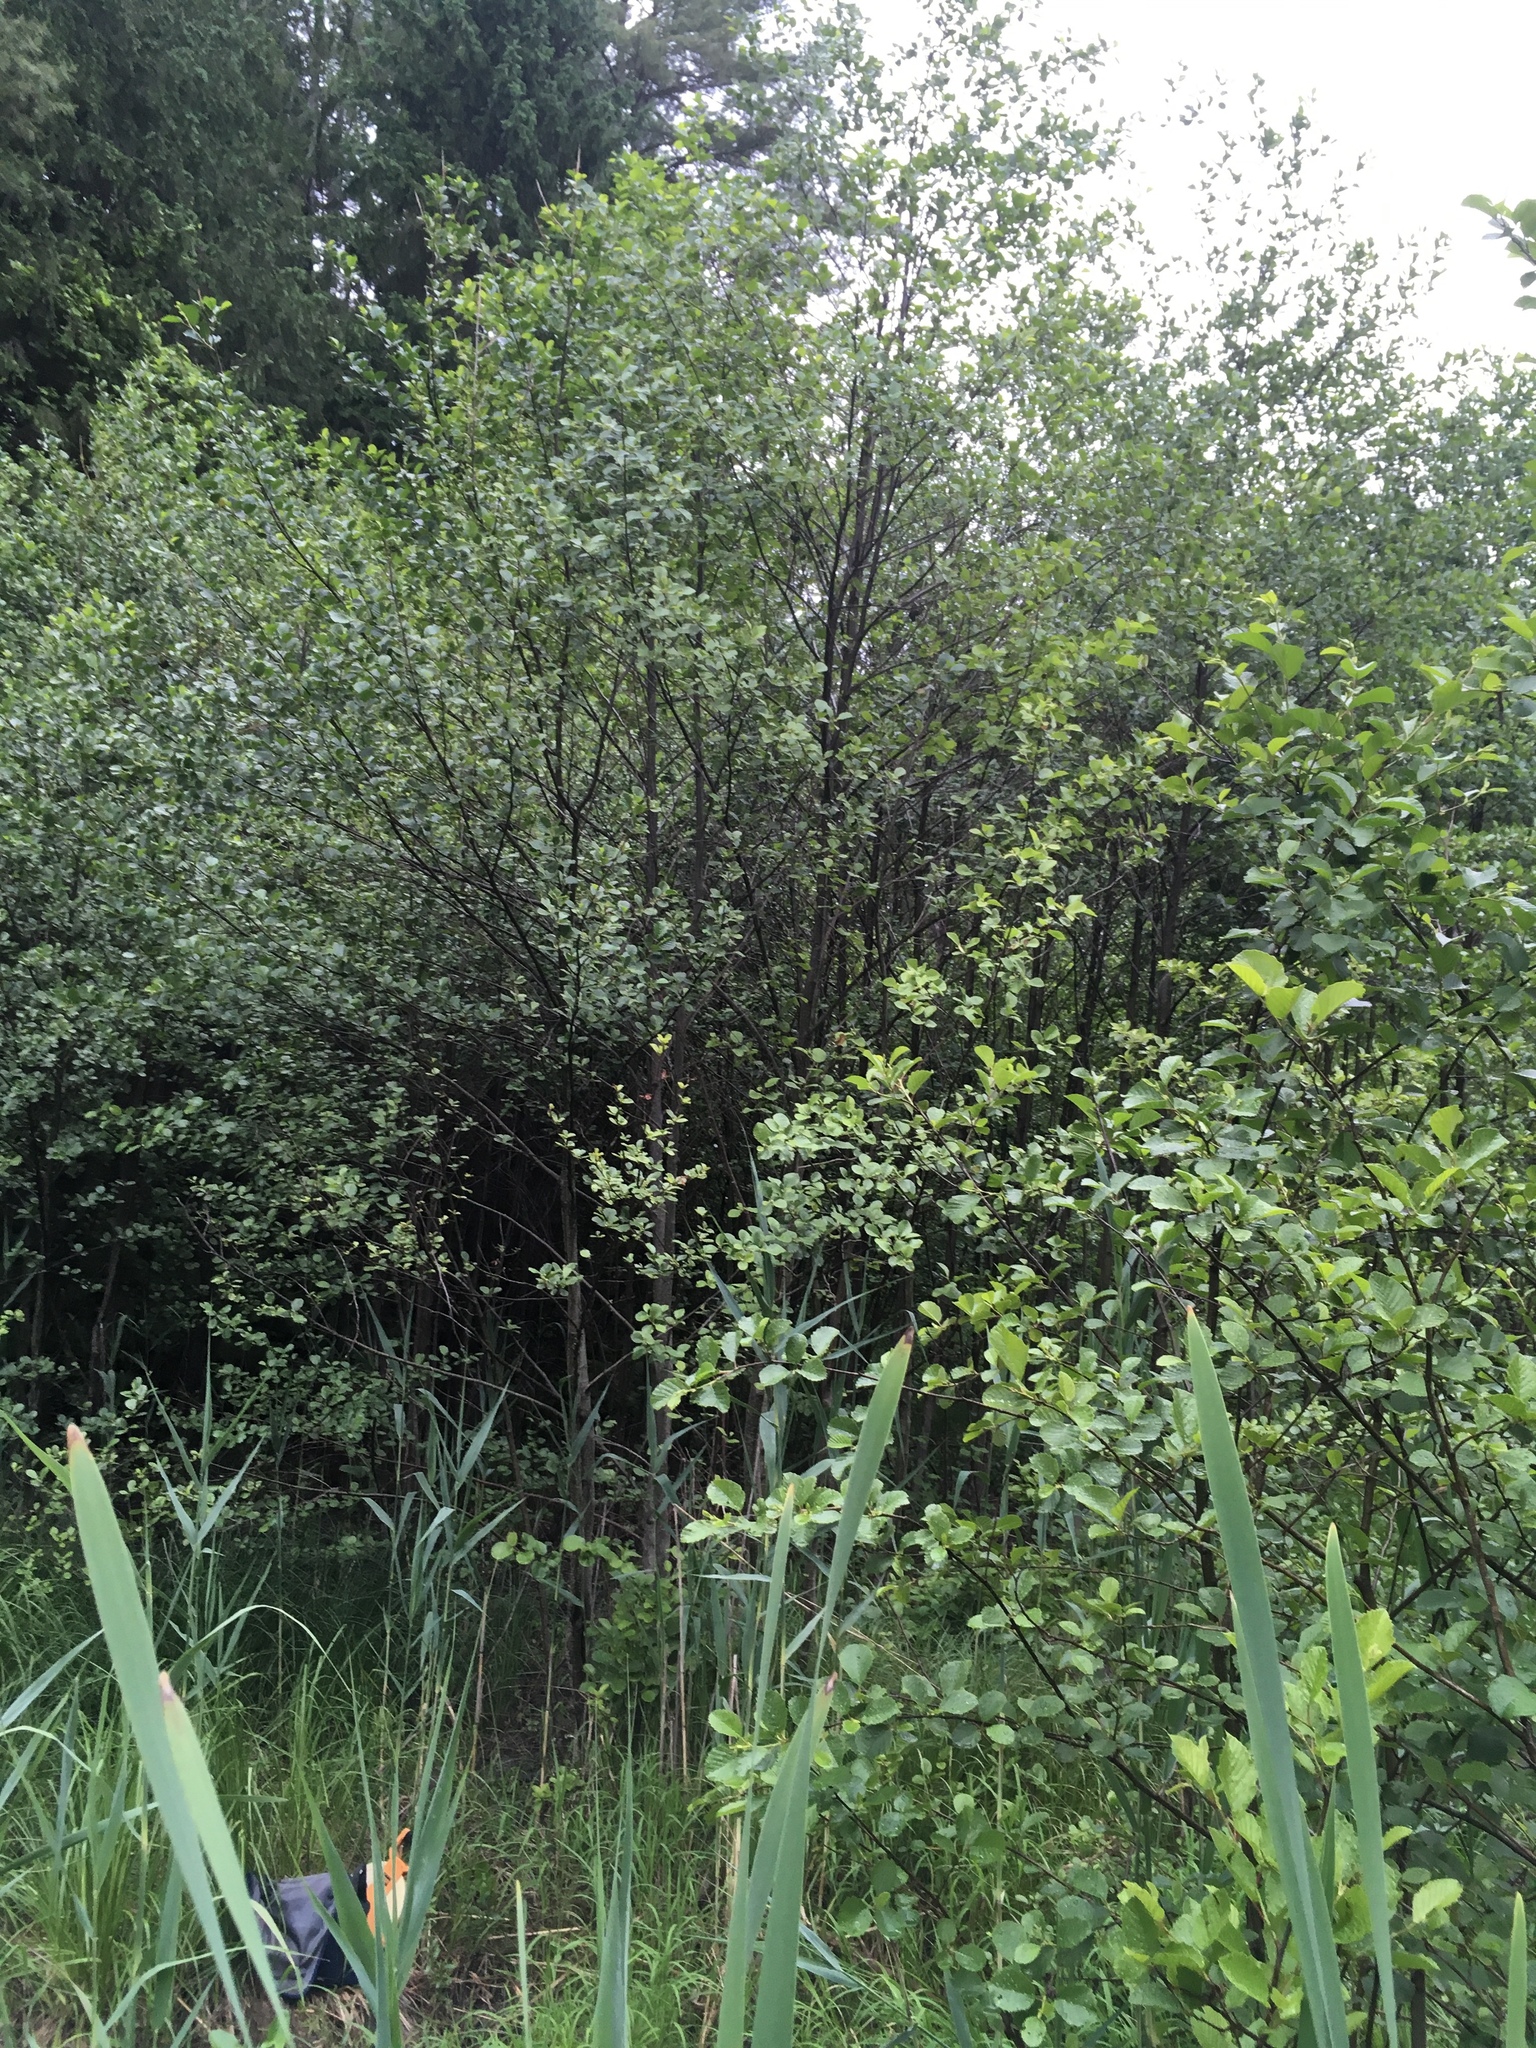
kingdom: Plantae
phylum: Tracheophyta
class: Magnoliopsida
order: Fagales
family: Betulaceae
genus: Alnus
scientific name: Alnus glutinosa
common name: Black alder
